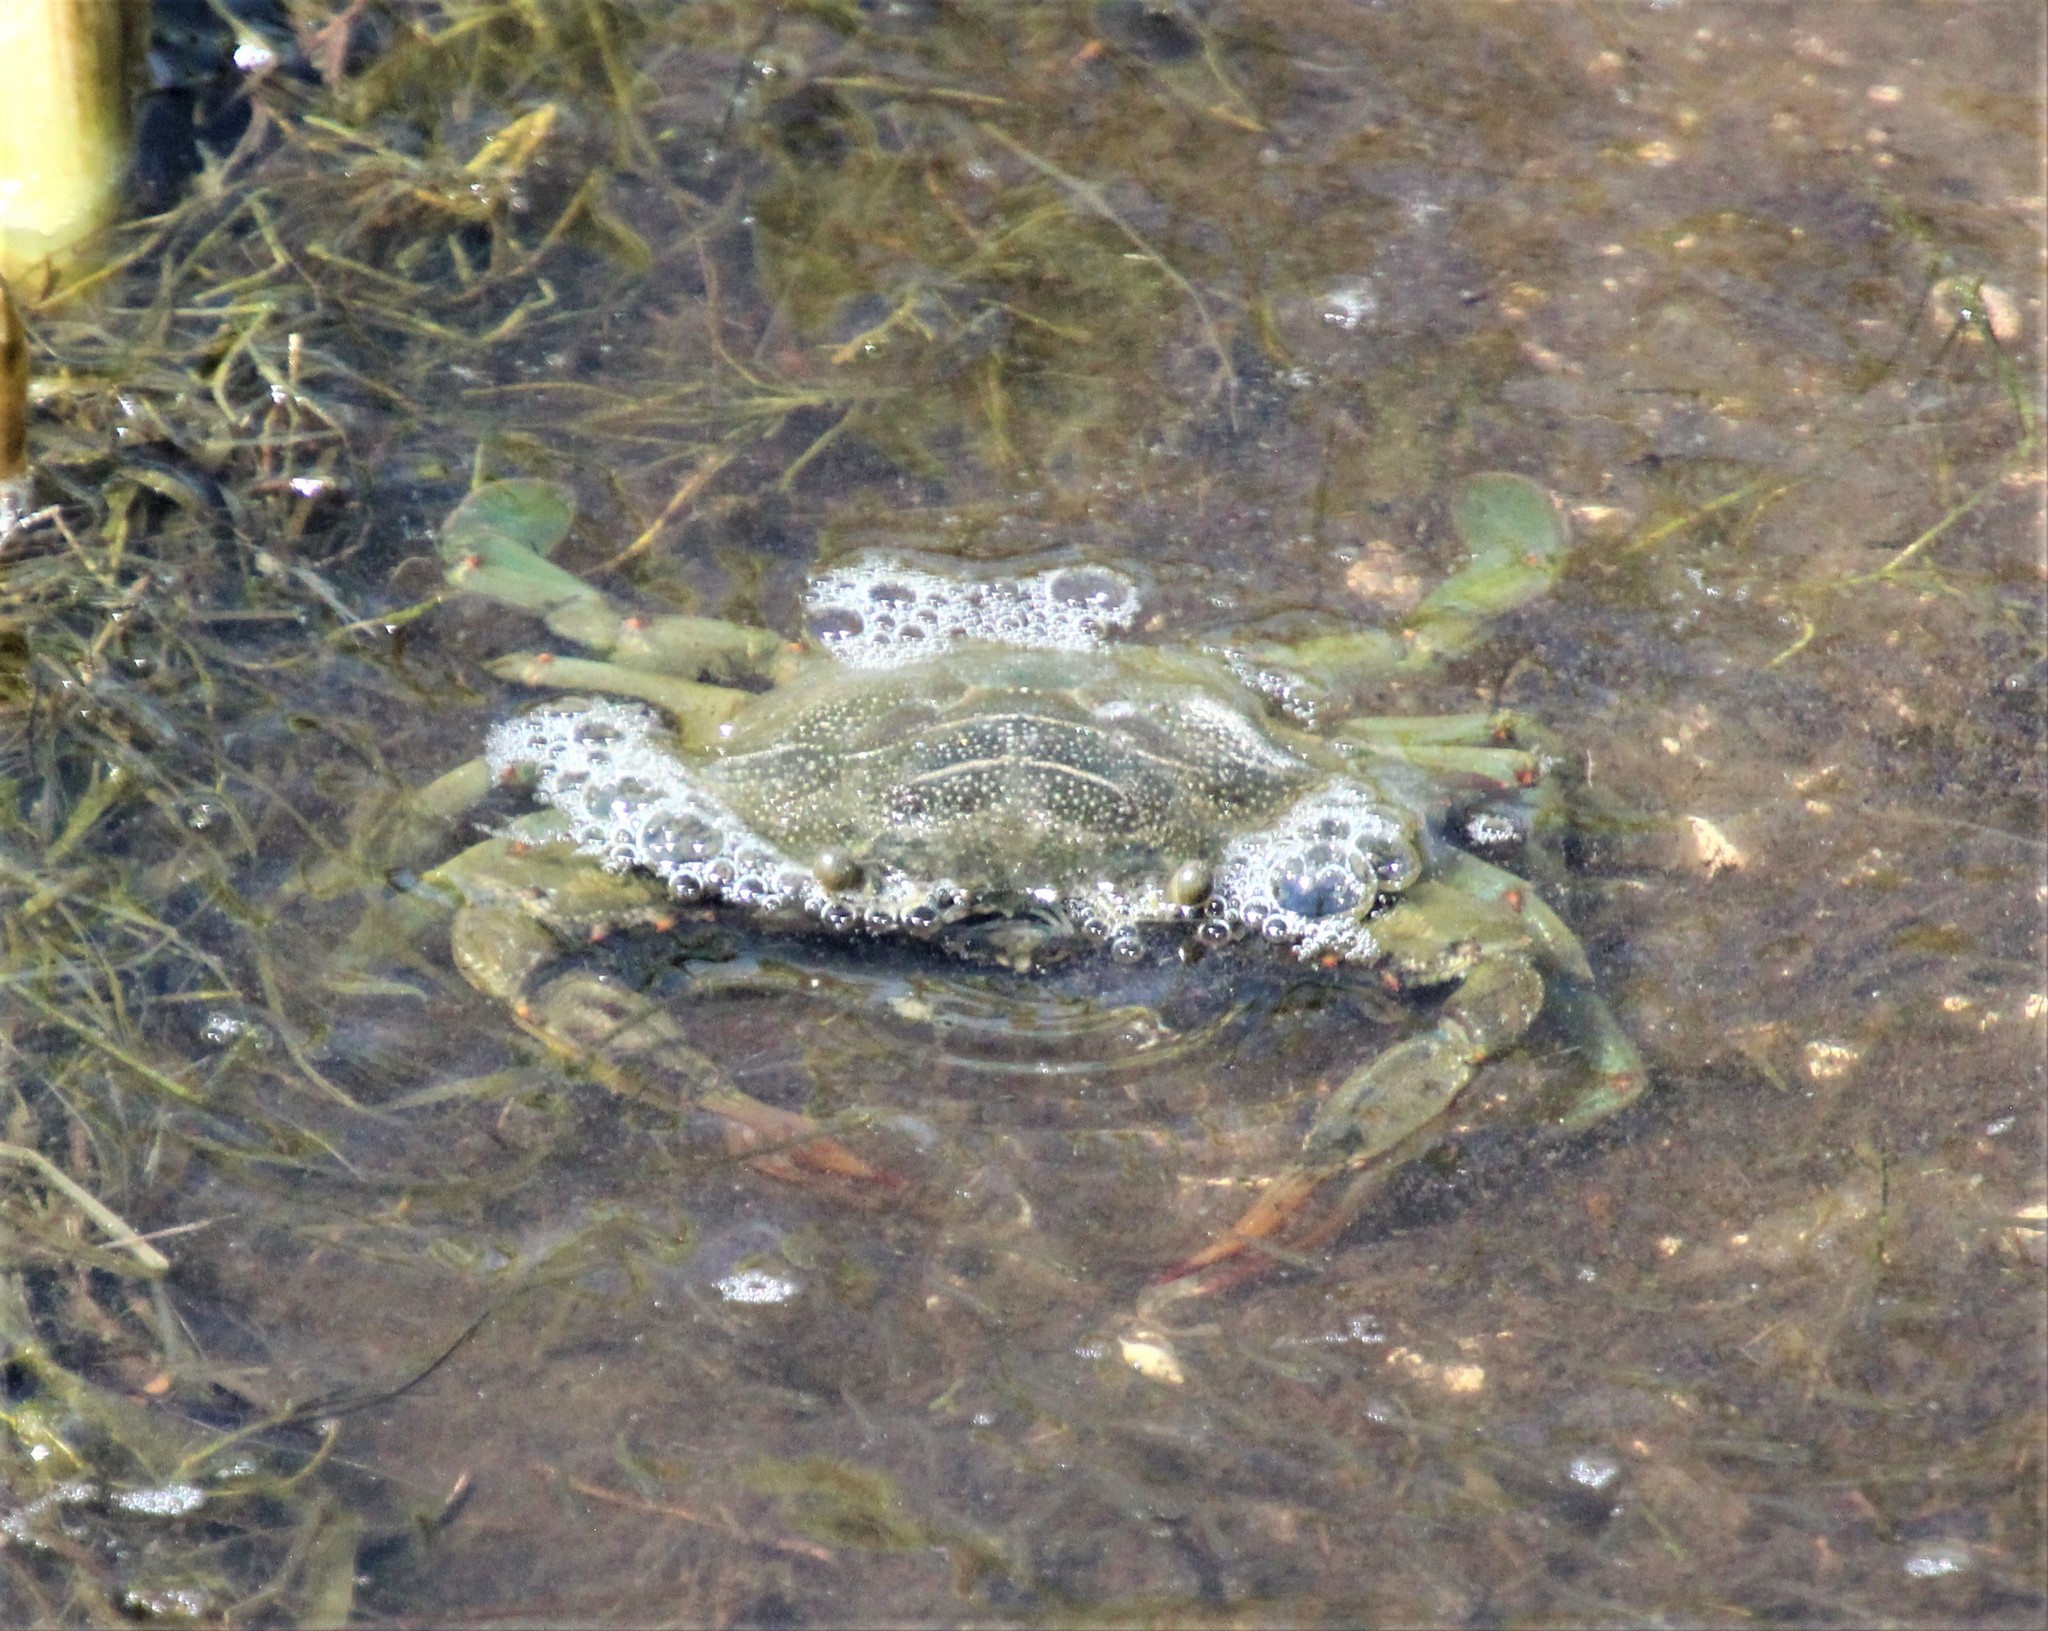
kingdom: Animalia
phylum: Arthropoda
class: Malacostraca
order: Decapoda
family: Portunidae
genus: Callinectes
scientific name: Callinectes sapidus
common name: Blue crab
